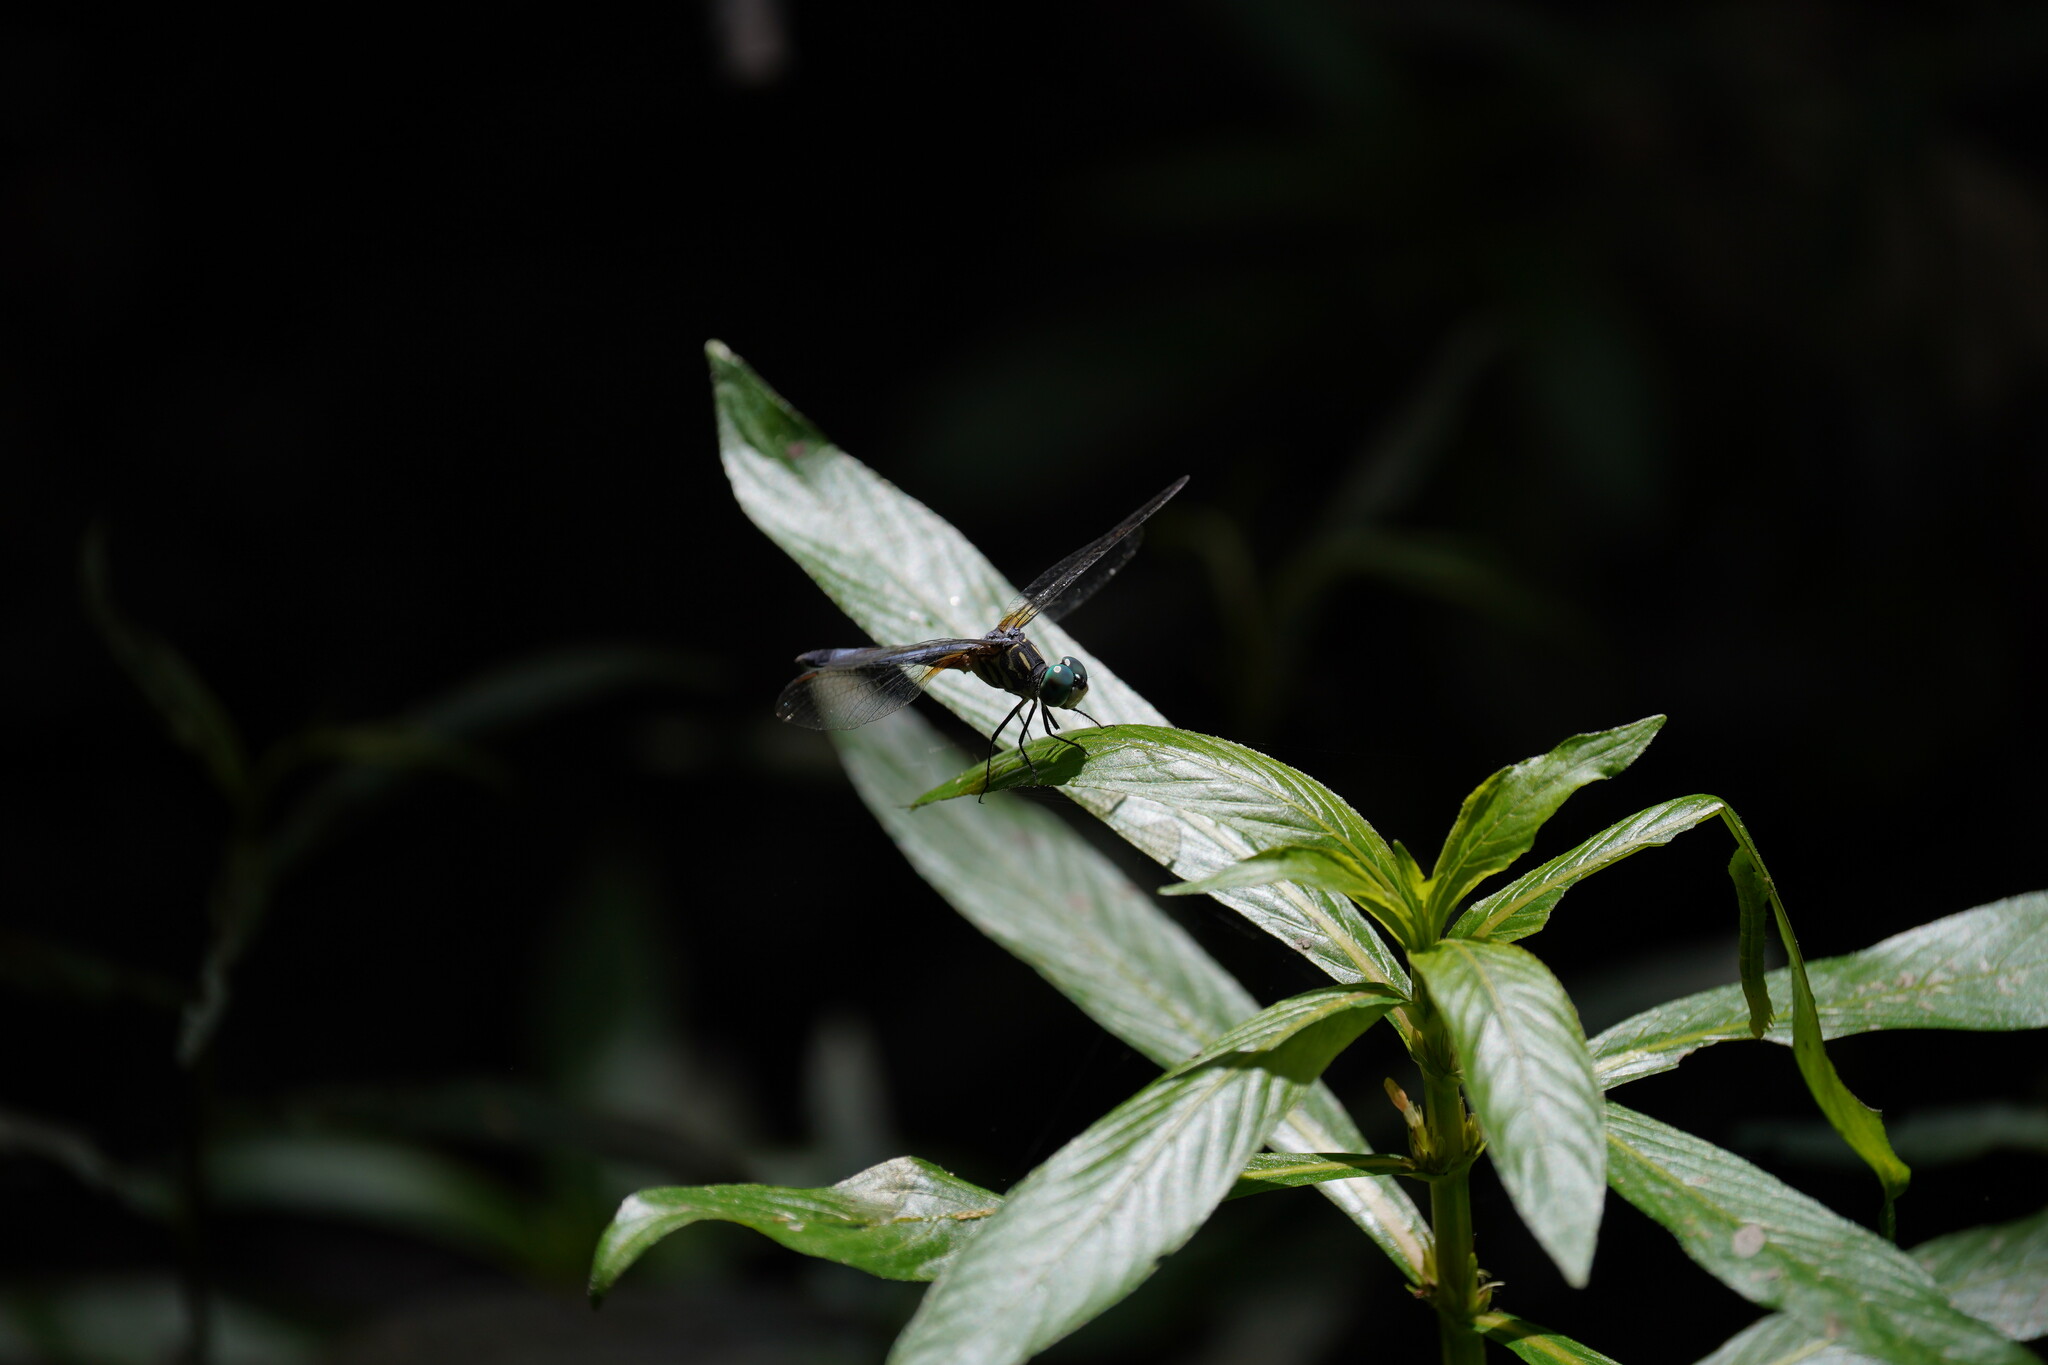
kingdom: Animalia
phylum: Arthropoda
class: Insecta
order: Odonata
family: Libellulidae
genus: Pachydiplax
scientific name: Pachydiplax longipennis
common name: Blue dasher
